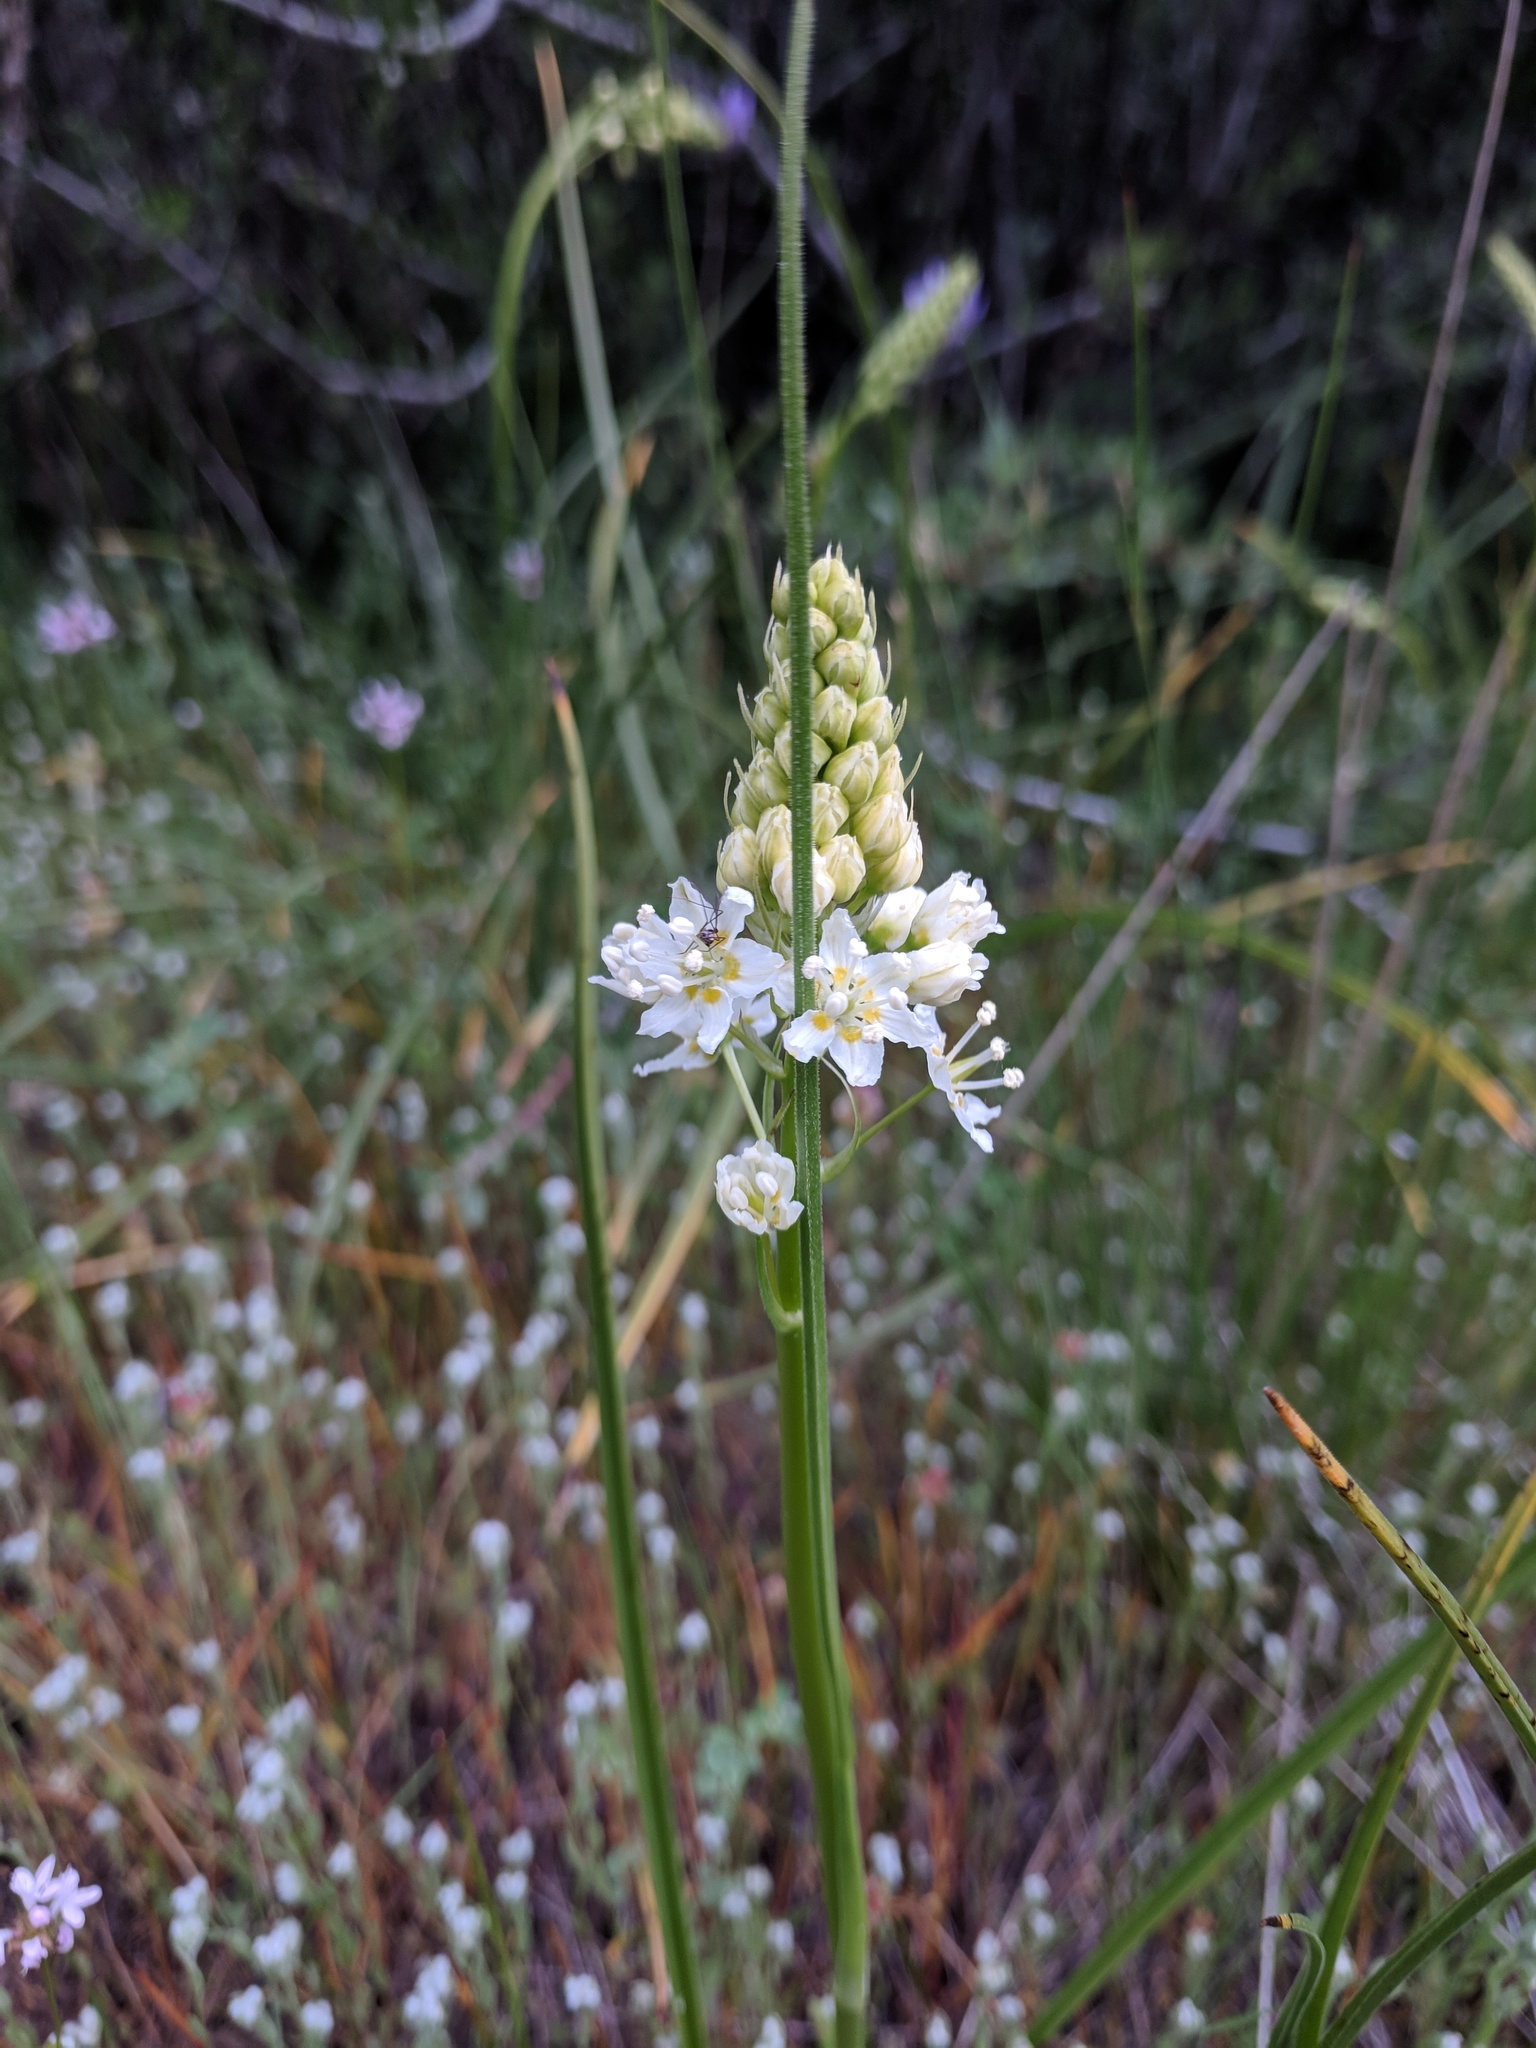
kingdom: Plantae
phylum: Tracheophyta
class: Liliopsida
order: Liliales
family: Melanthiaceae
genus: Toxicoscordion
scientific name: Toxicoscordion venenosum
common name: Meadow death camas
